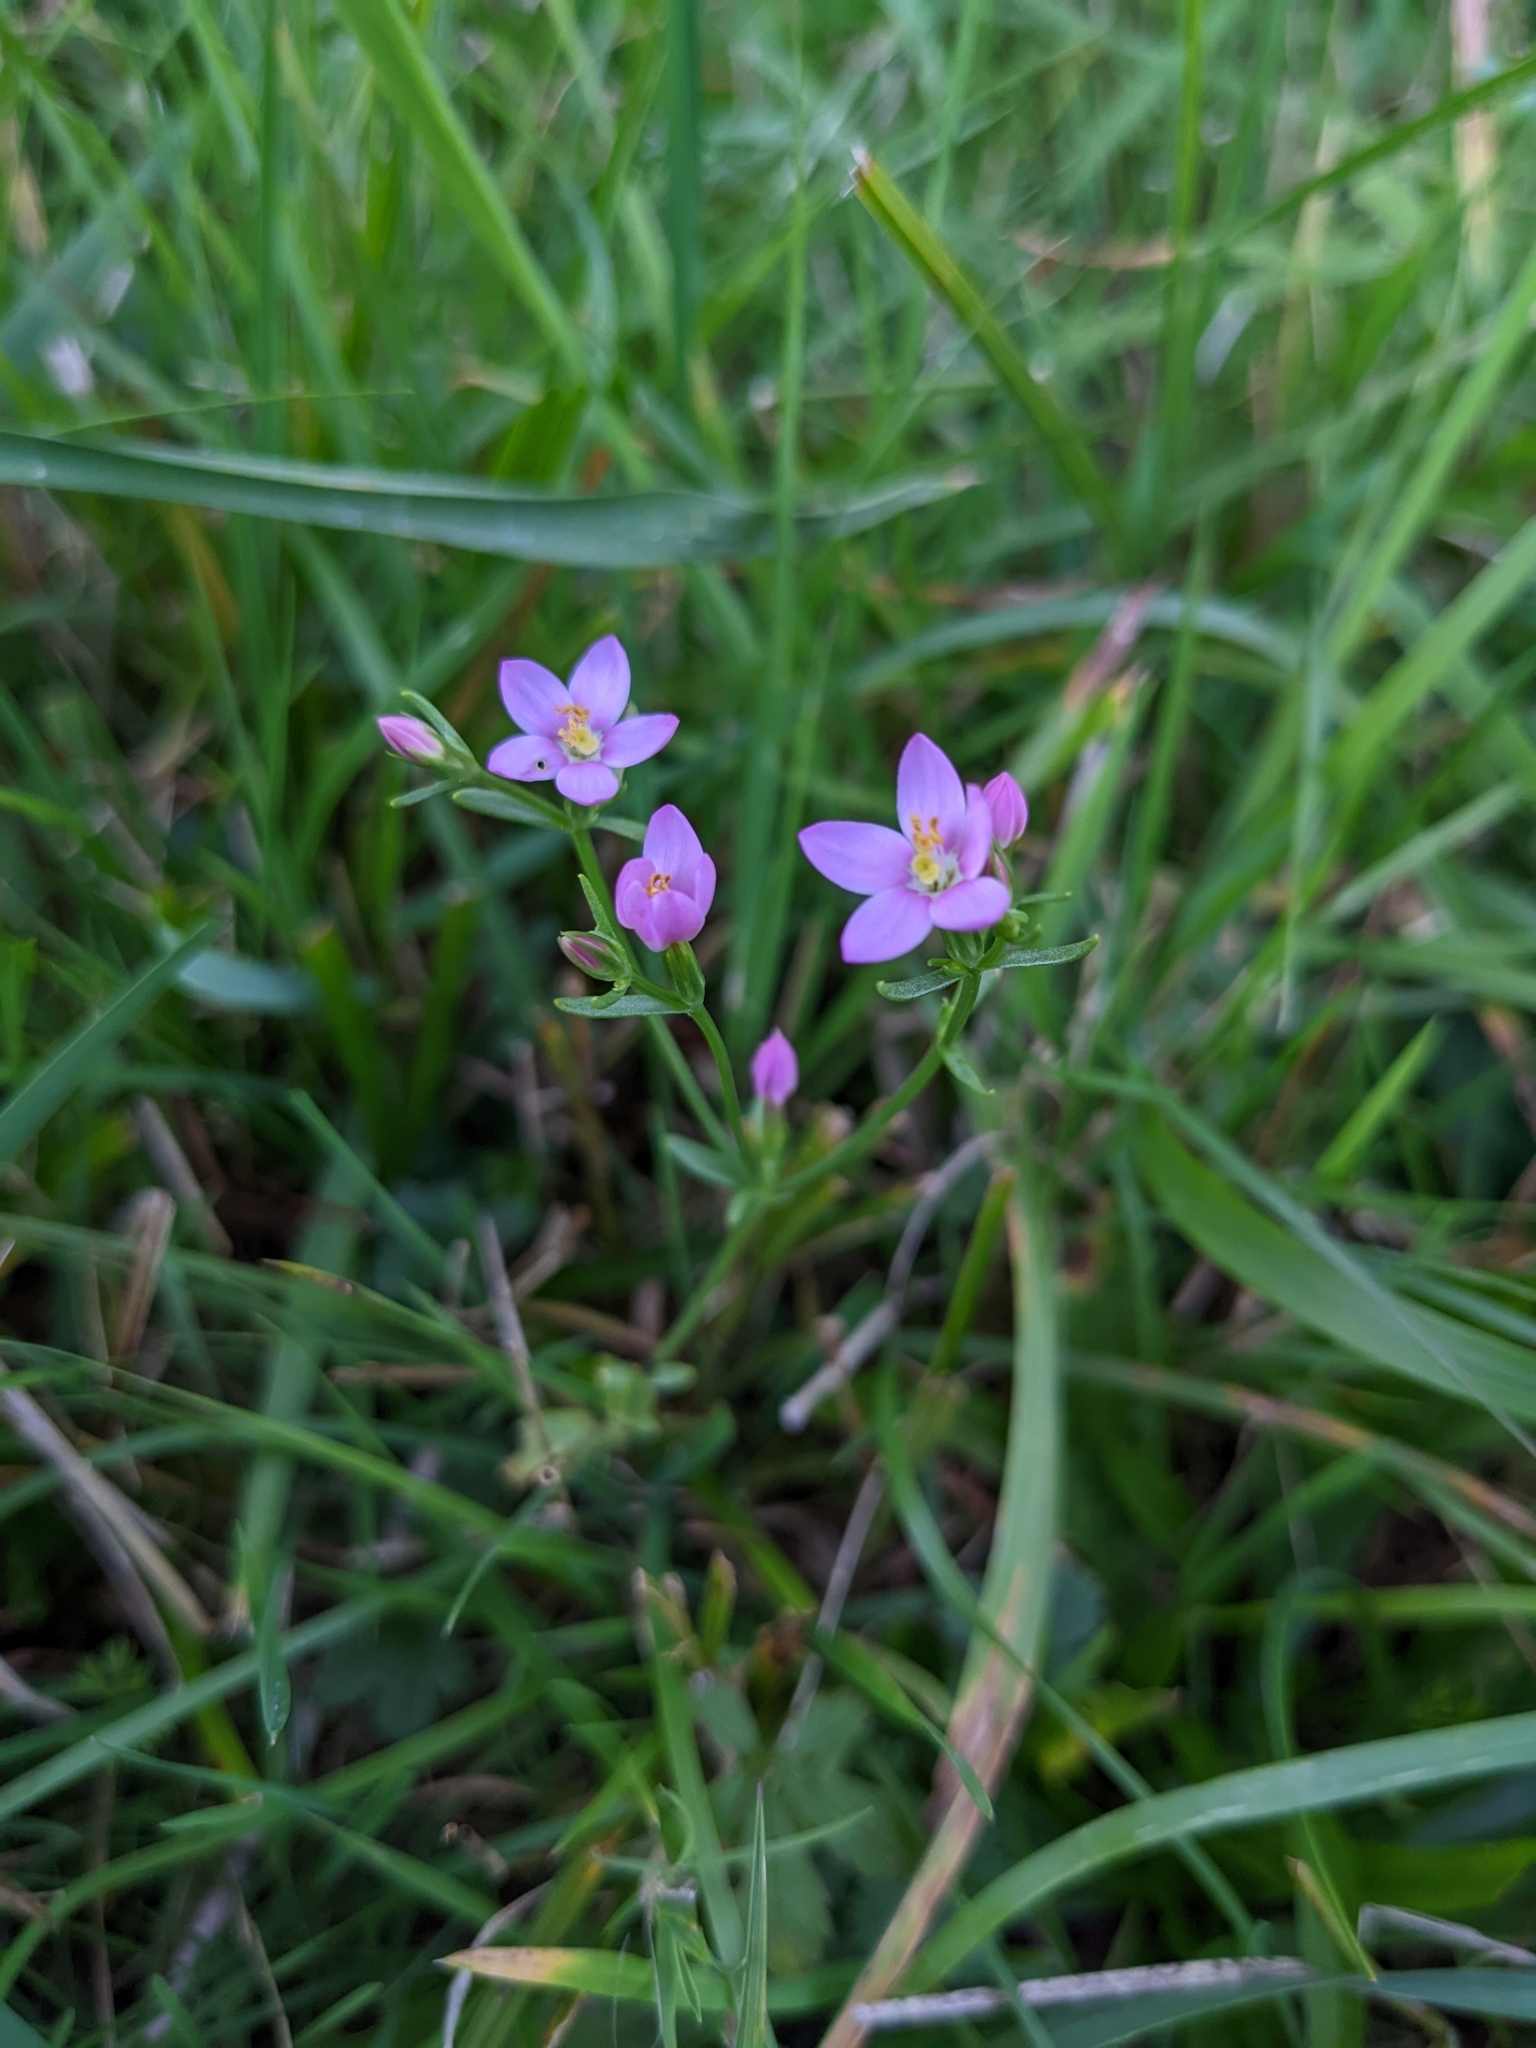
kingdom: Plantae
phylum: Tracheophyta
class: Magnoliopsida
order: Gentianales
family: Gentianaceae
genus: Centaurium
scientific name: Centaurium erythraea
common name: Common centaury
